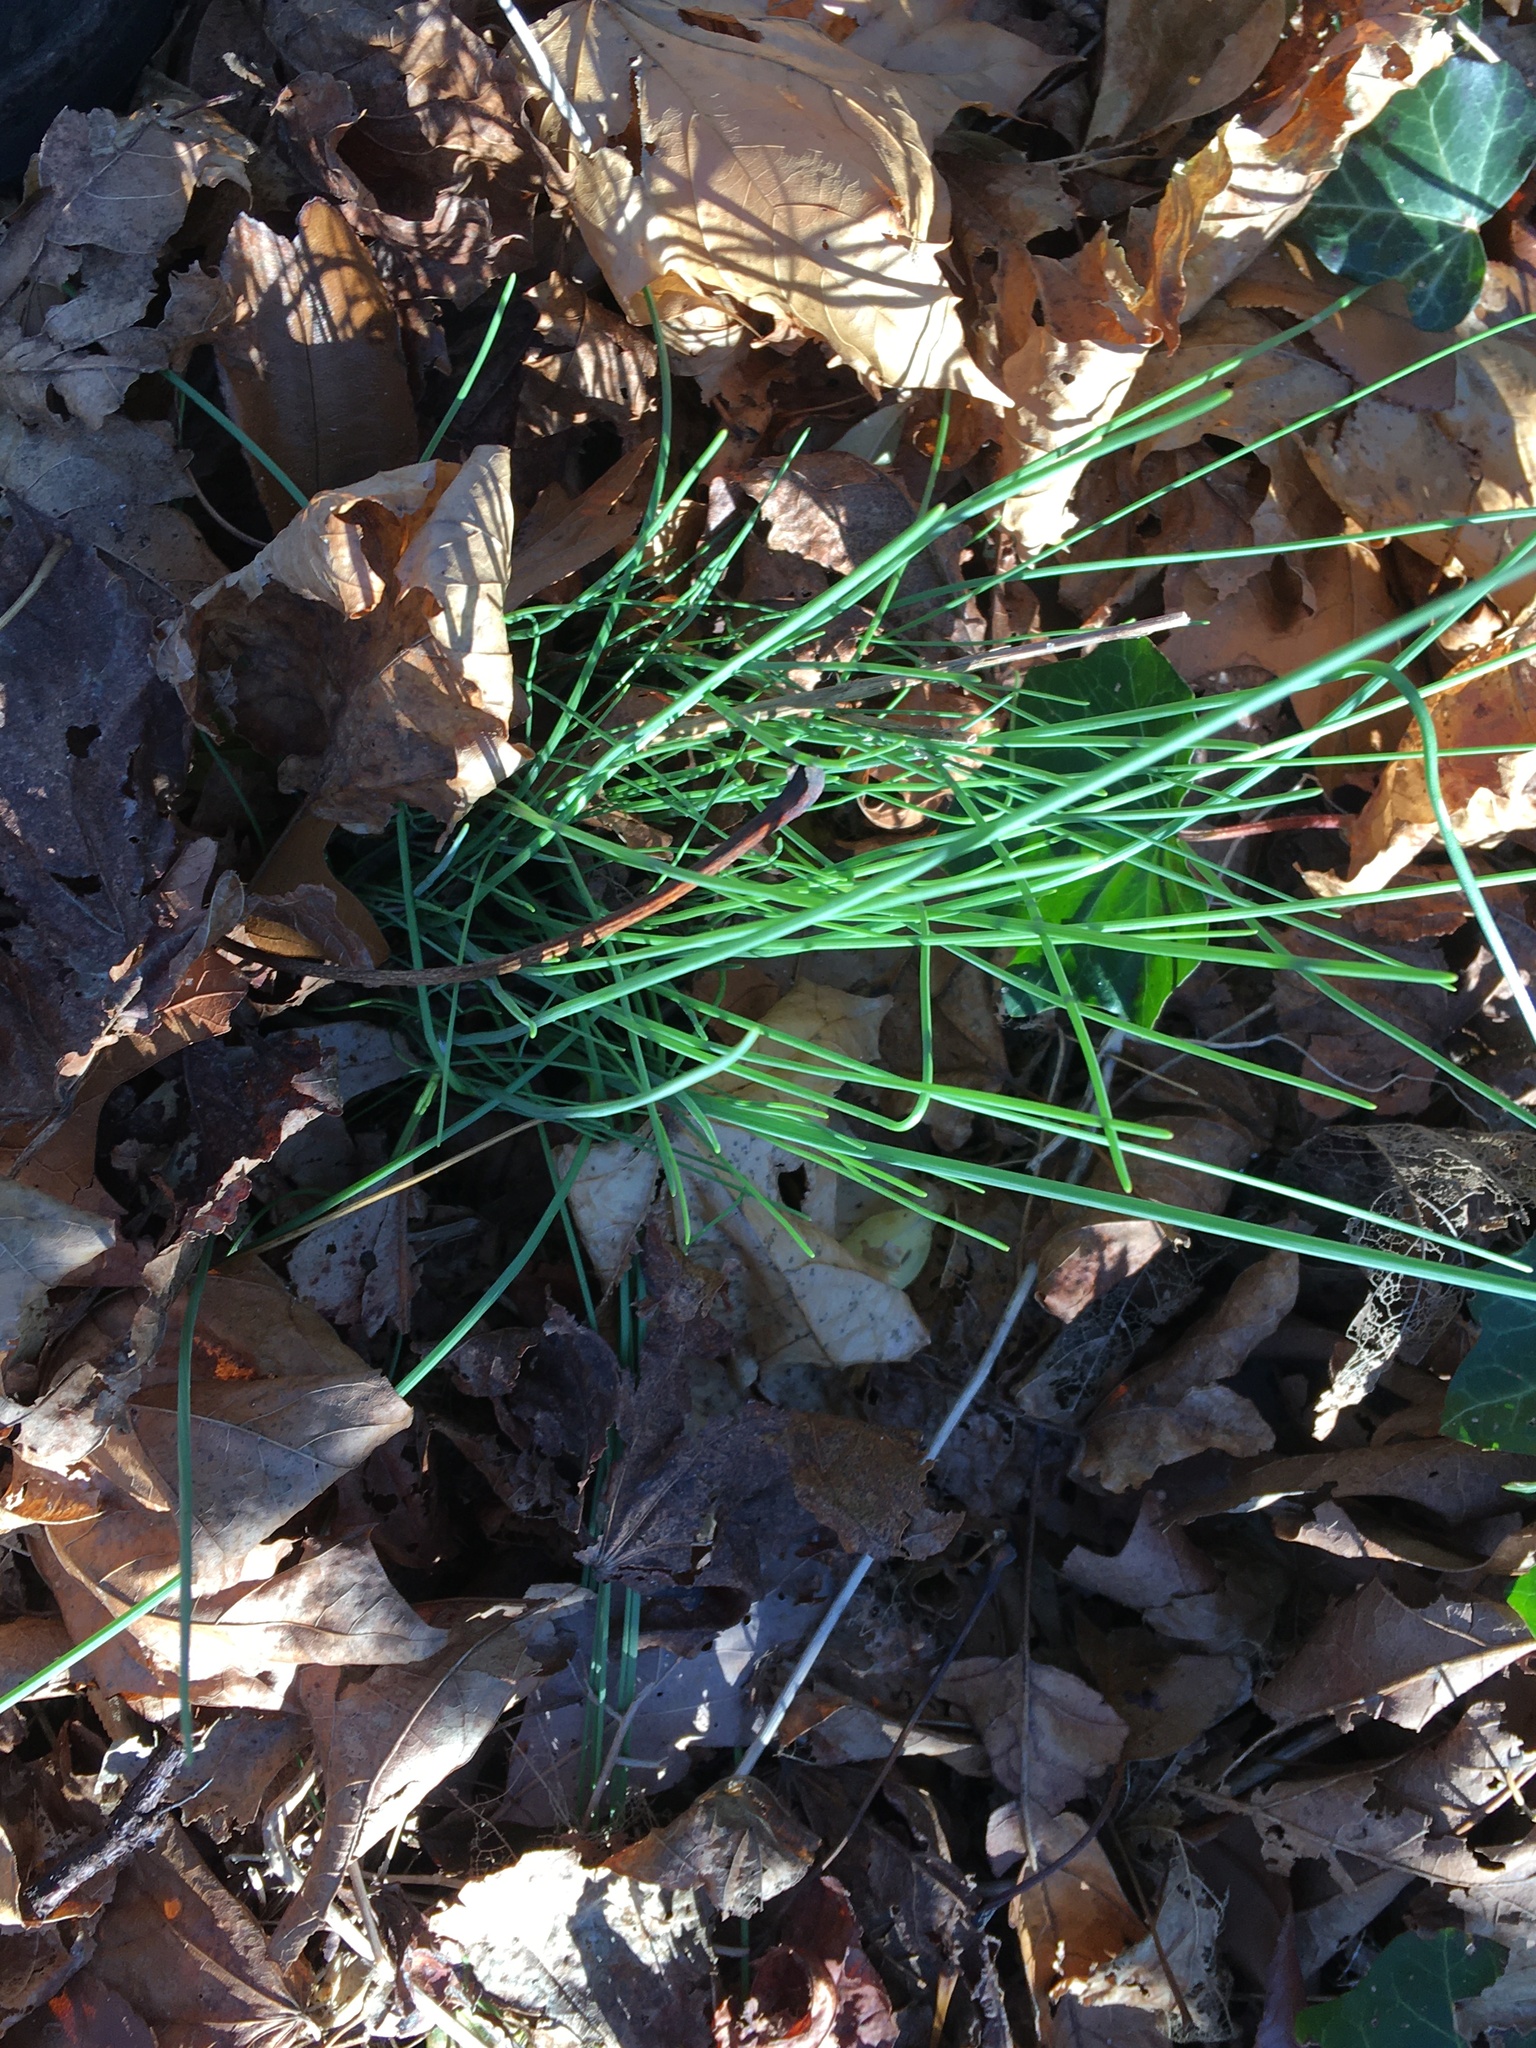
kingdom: Plantae
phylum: Tracheophyta
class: Liliopsida
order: Asparagales
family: Amaryllidaceae
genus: Allium
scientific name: Allium vineale
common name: Crow garlic
